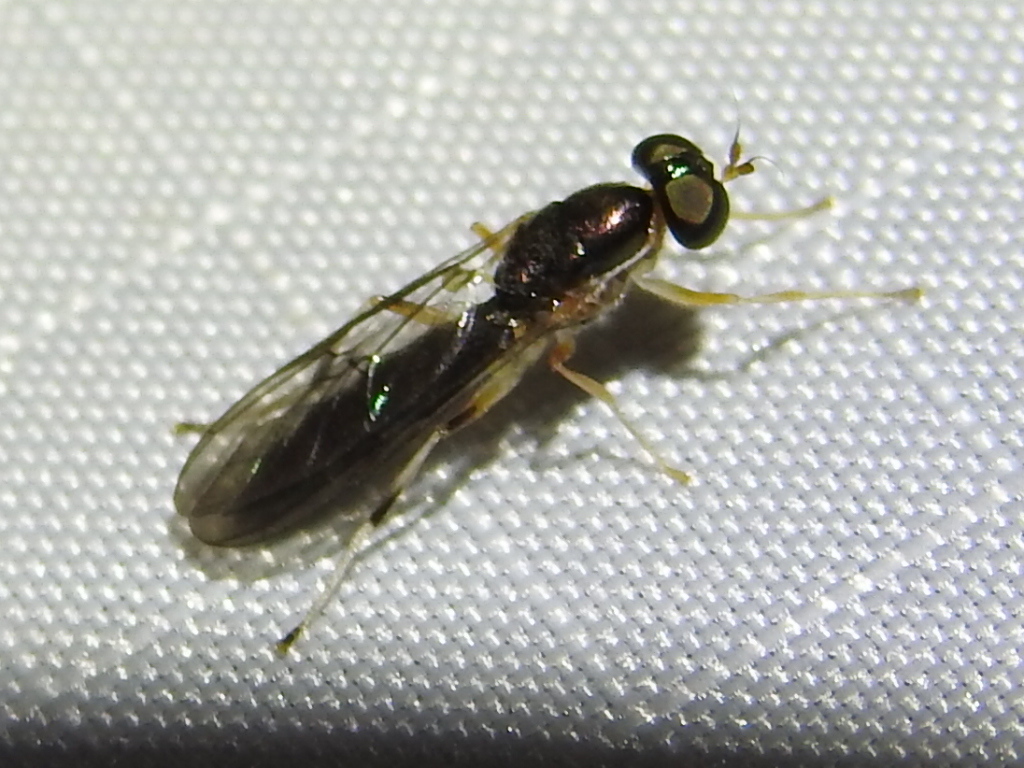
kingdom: Animalia
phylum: Arthropoda
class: Insecta
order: Diptera
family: Stratiomyidae
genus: Merosargus
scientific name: Merosargus caeruleifrons
